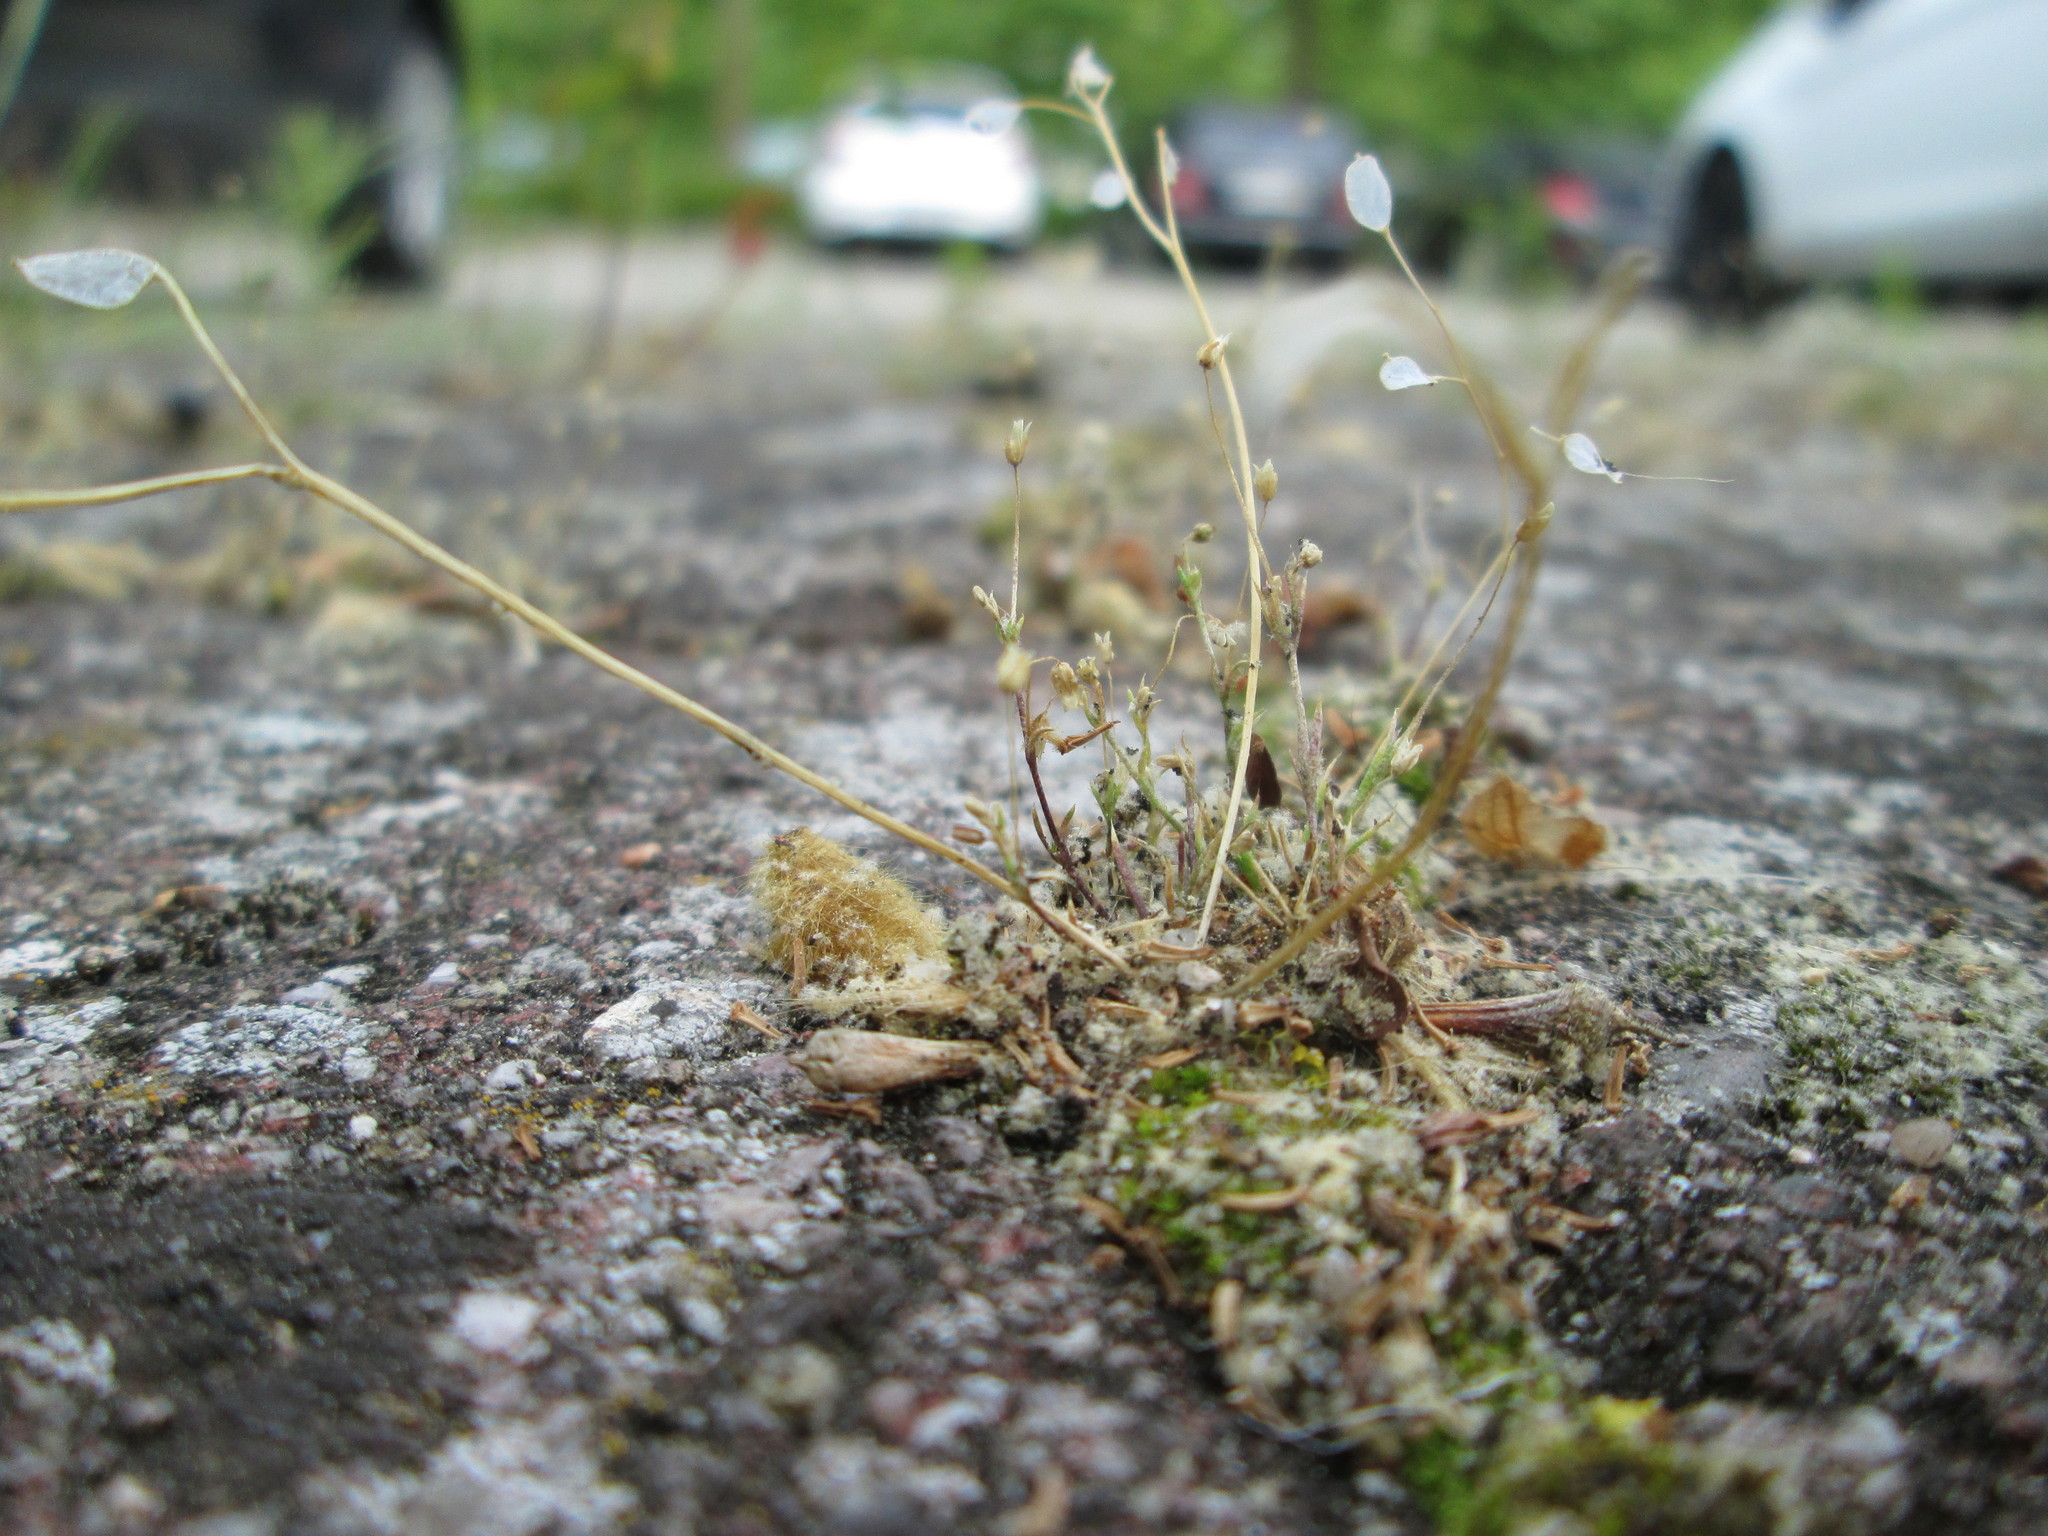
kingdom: Plantae
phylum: Tracheophyta
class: Magnoliopsida
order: Brassicales
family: Brassicaceae
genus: Draba
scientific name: Draba verna
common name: Spring draba
